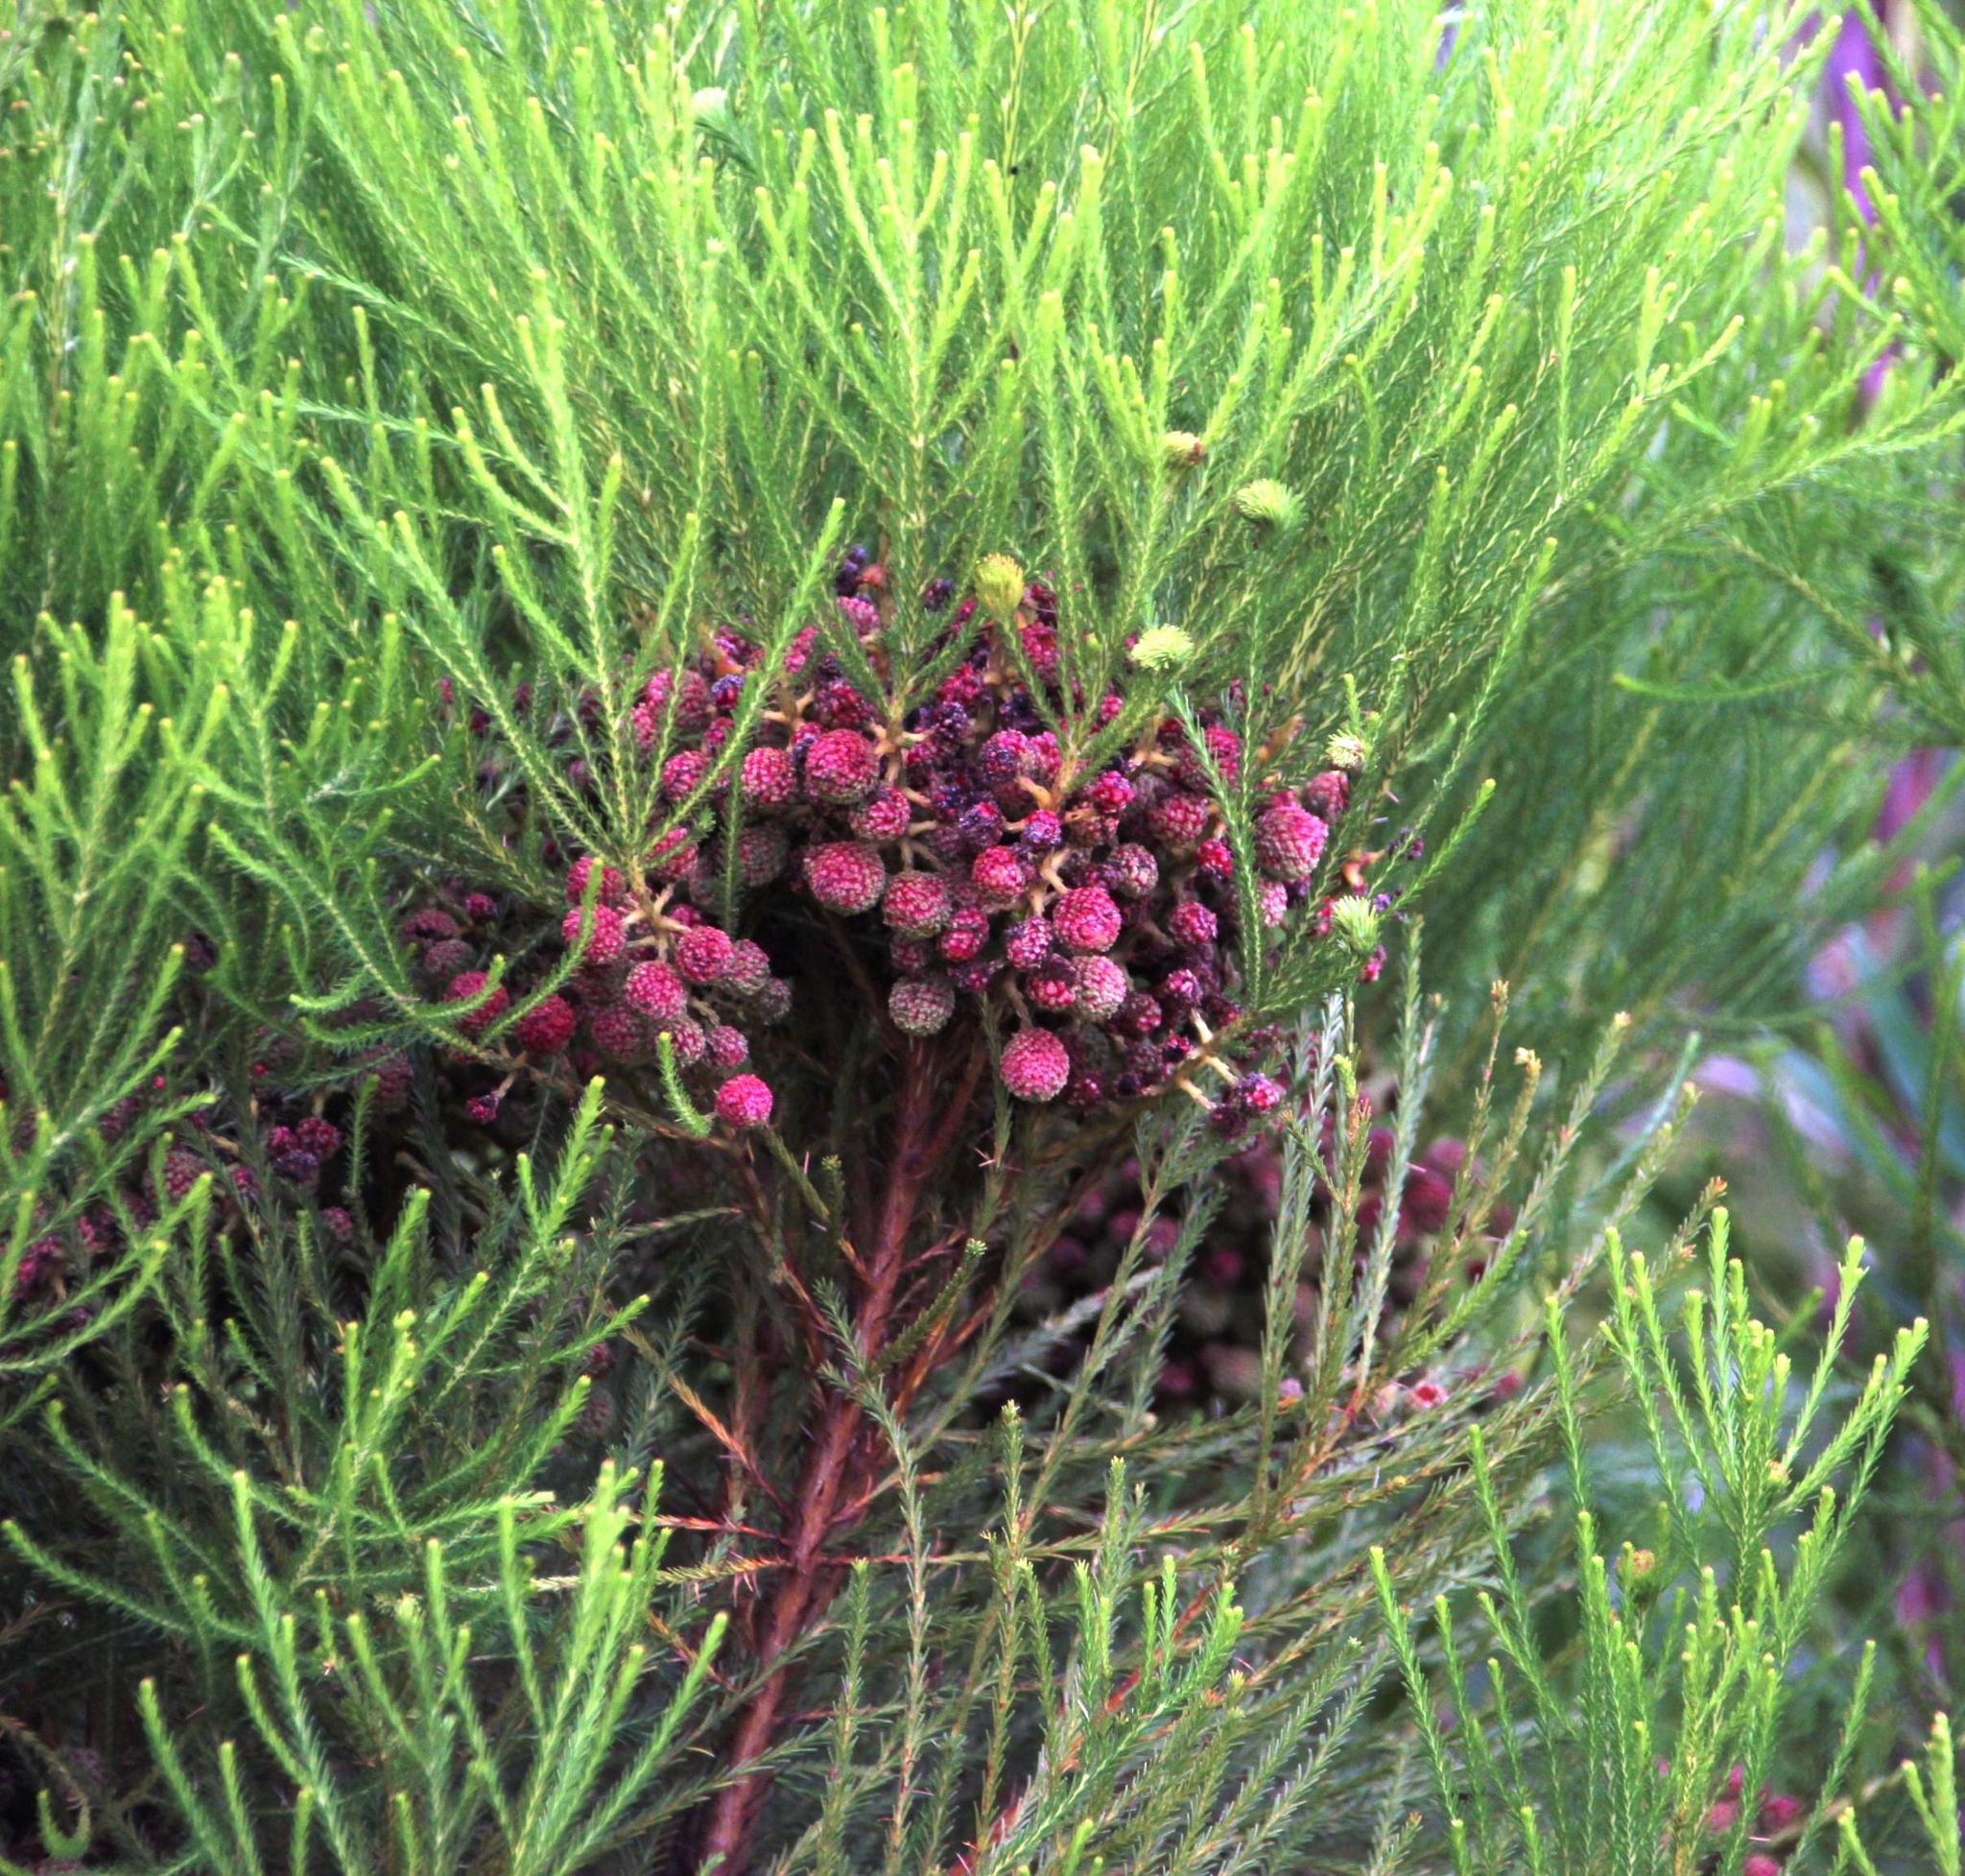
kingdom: Plantae
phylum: Tracheophyta
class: Magnoliopsida
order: Bruniales
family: Bruniaceae
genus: Berzelia
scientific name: Berzelia lanuginosa
